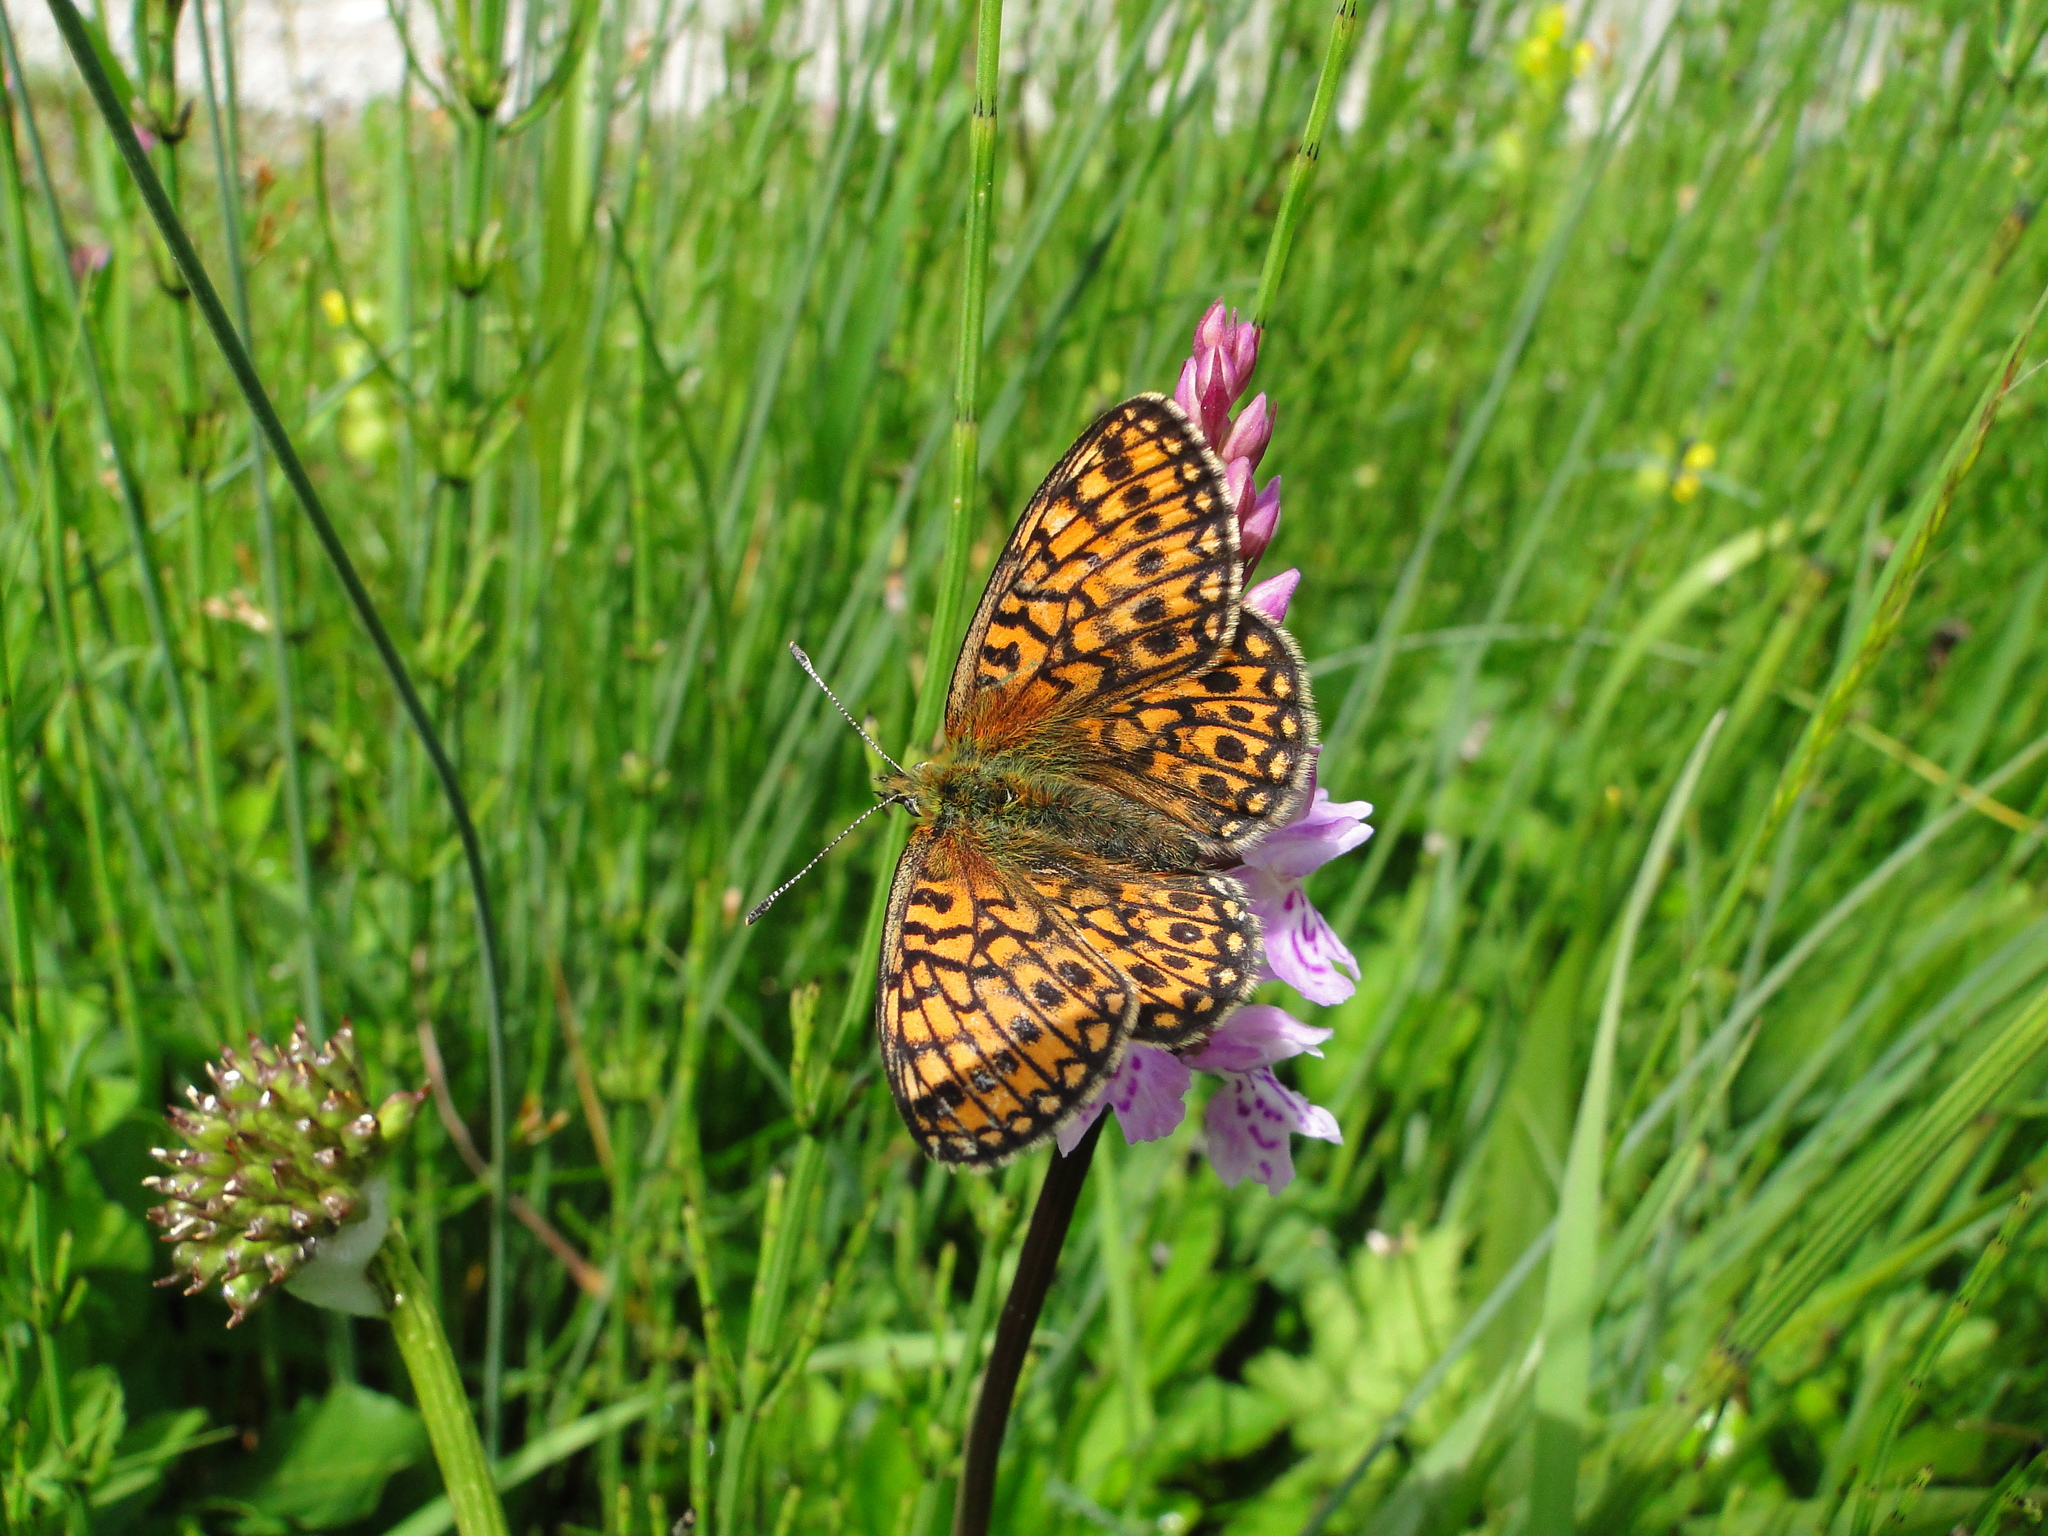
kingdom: Animalia
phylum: Arthropoda
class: Insecta
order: Lepidoptera
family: Nymphalidae
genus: Boloria
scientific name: Boloria eunomia
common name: Bog fritillary
